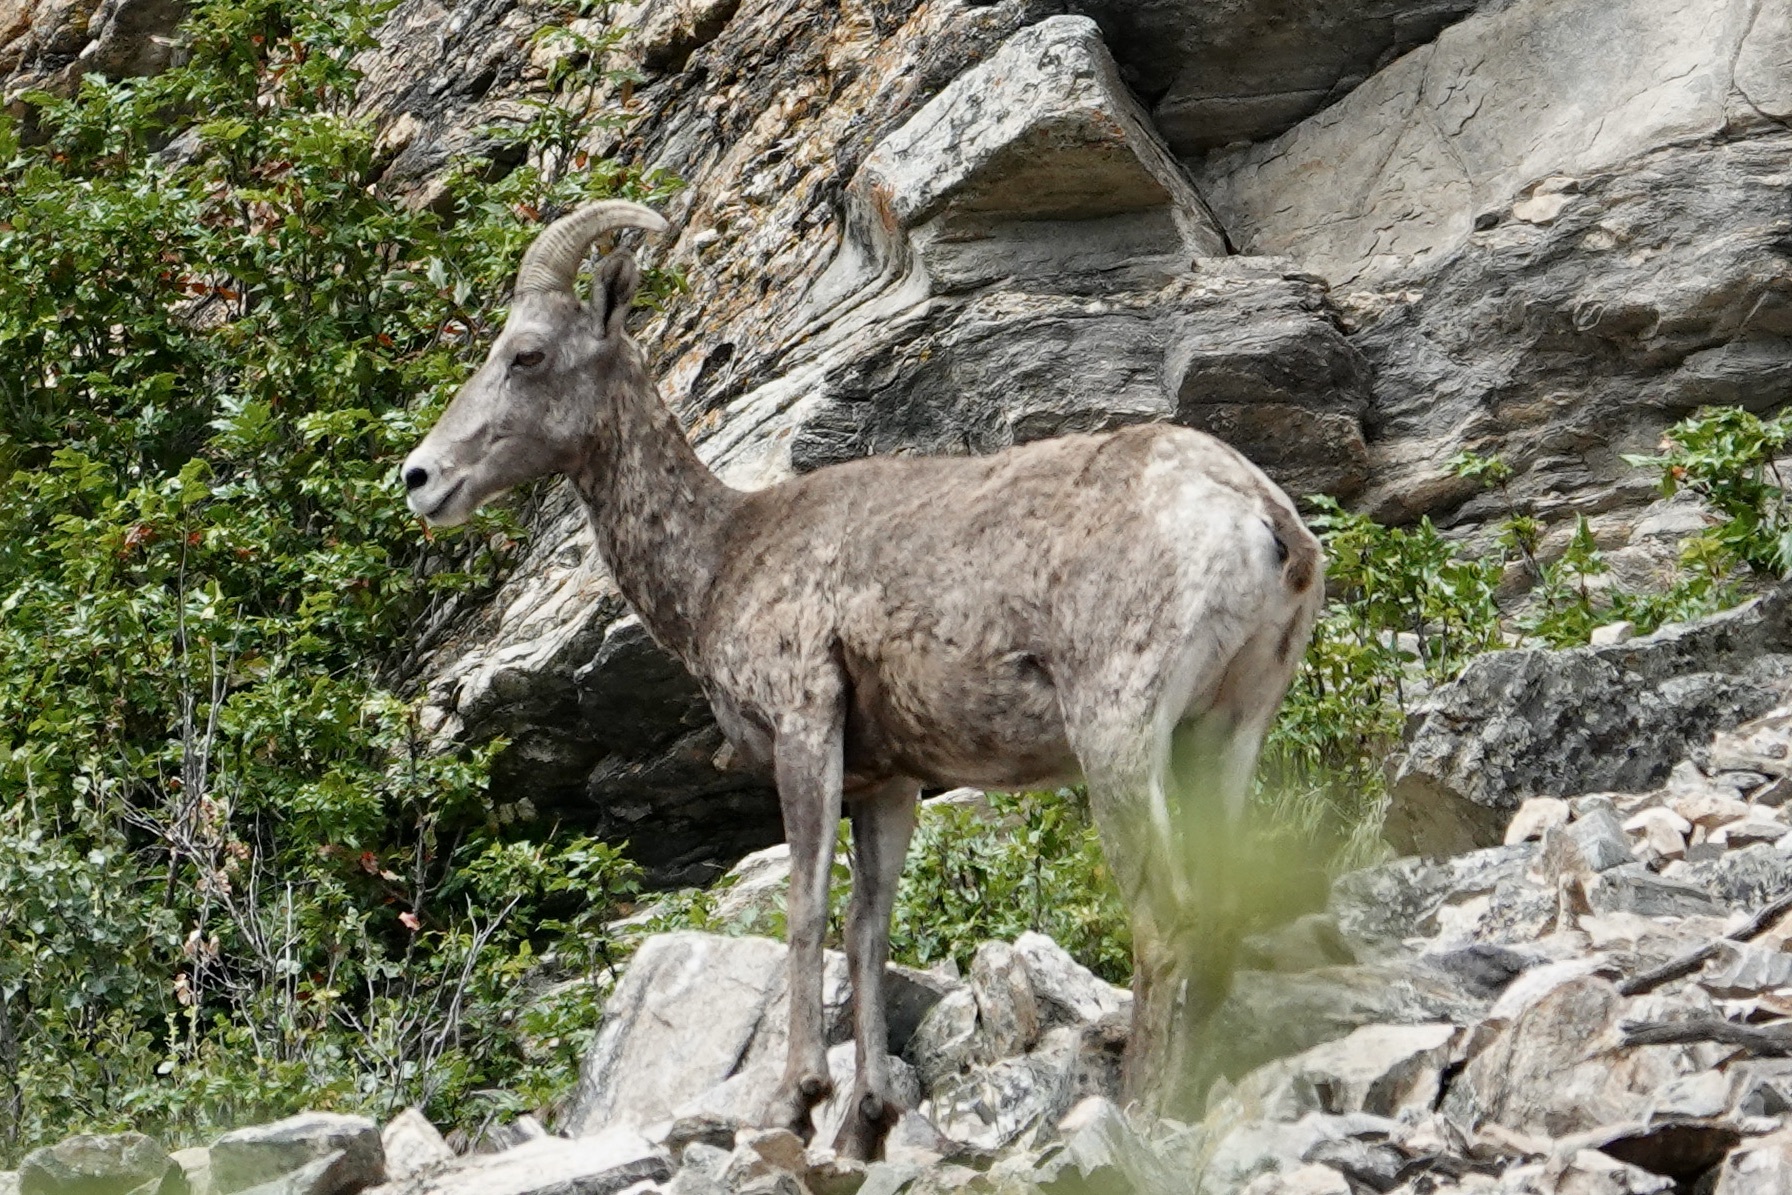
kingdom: Animalia
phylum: Chordata
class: Mammalia
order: Artiodactyla
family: Bovidae
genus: Ovis
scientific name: Ovis canadensis
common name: Bighorn sheep
